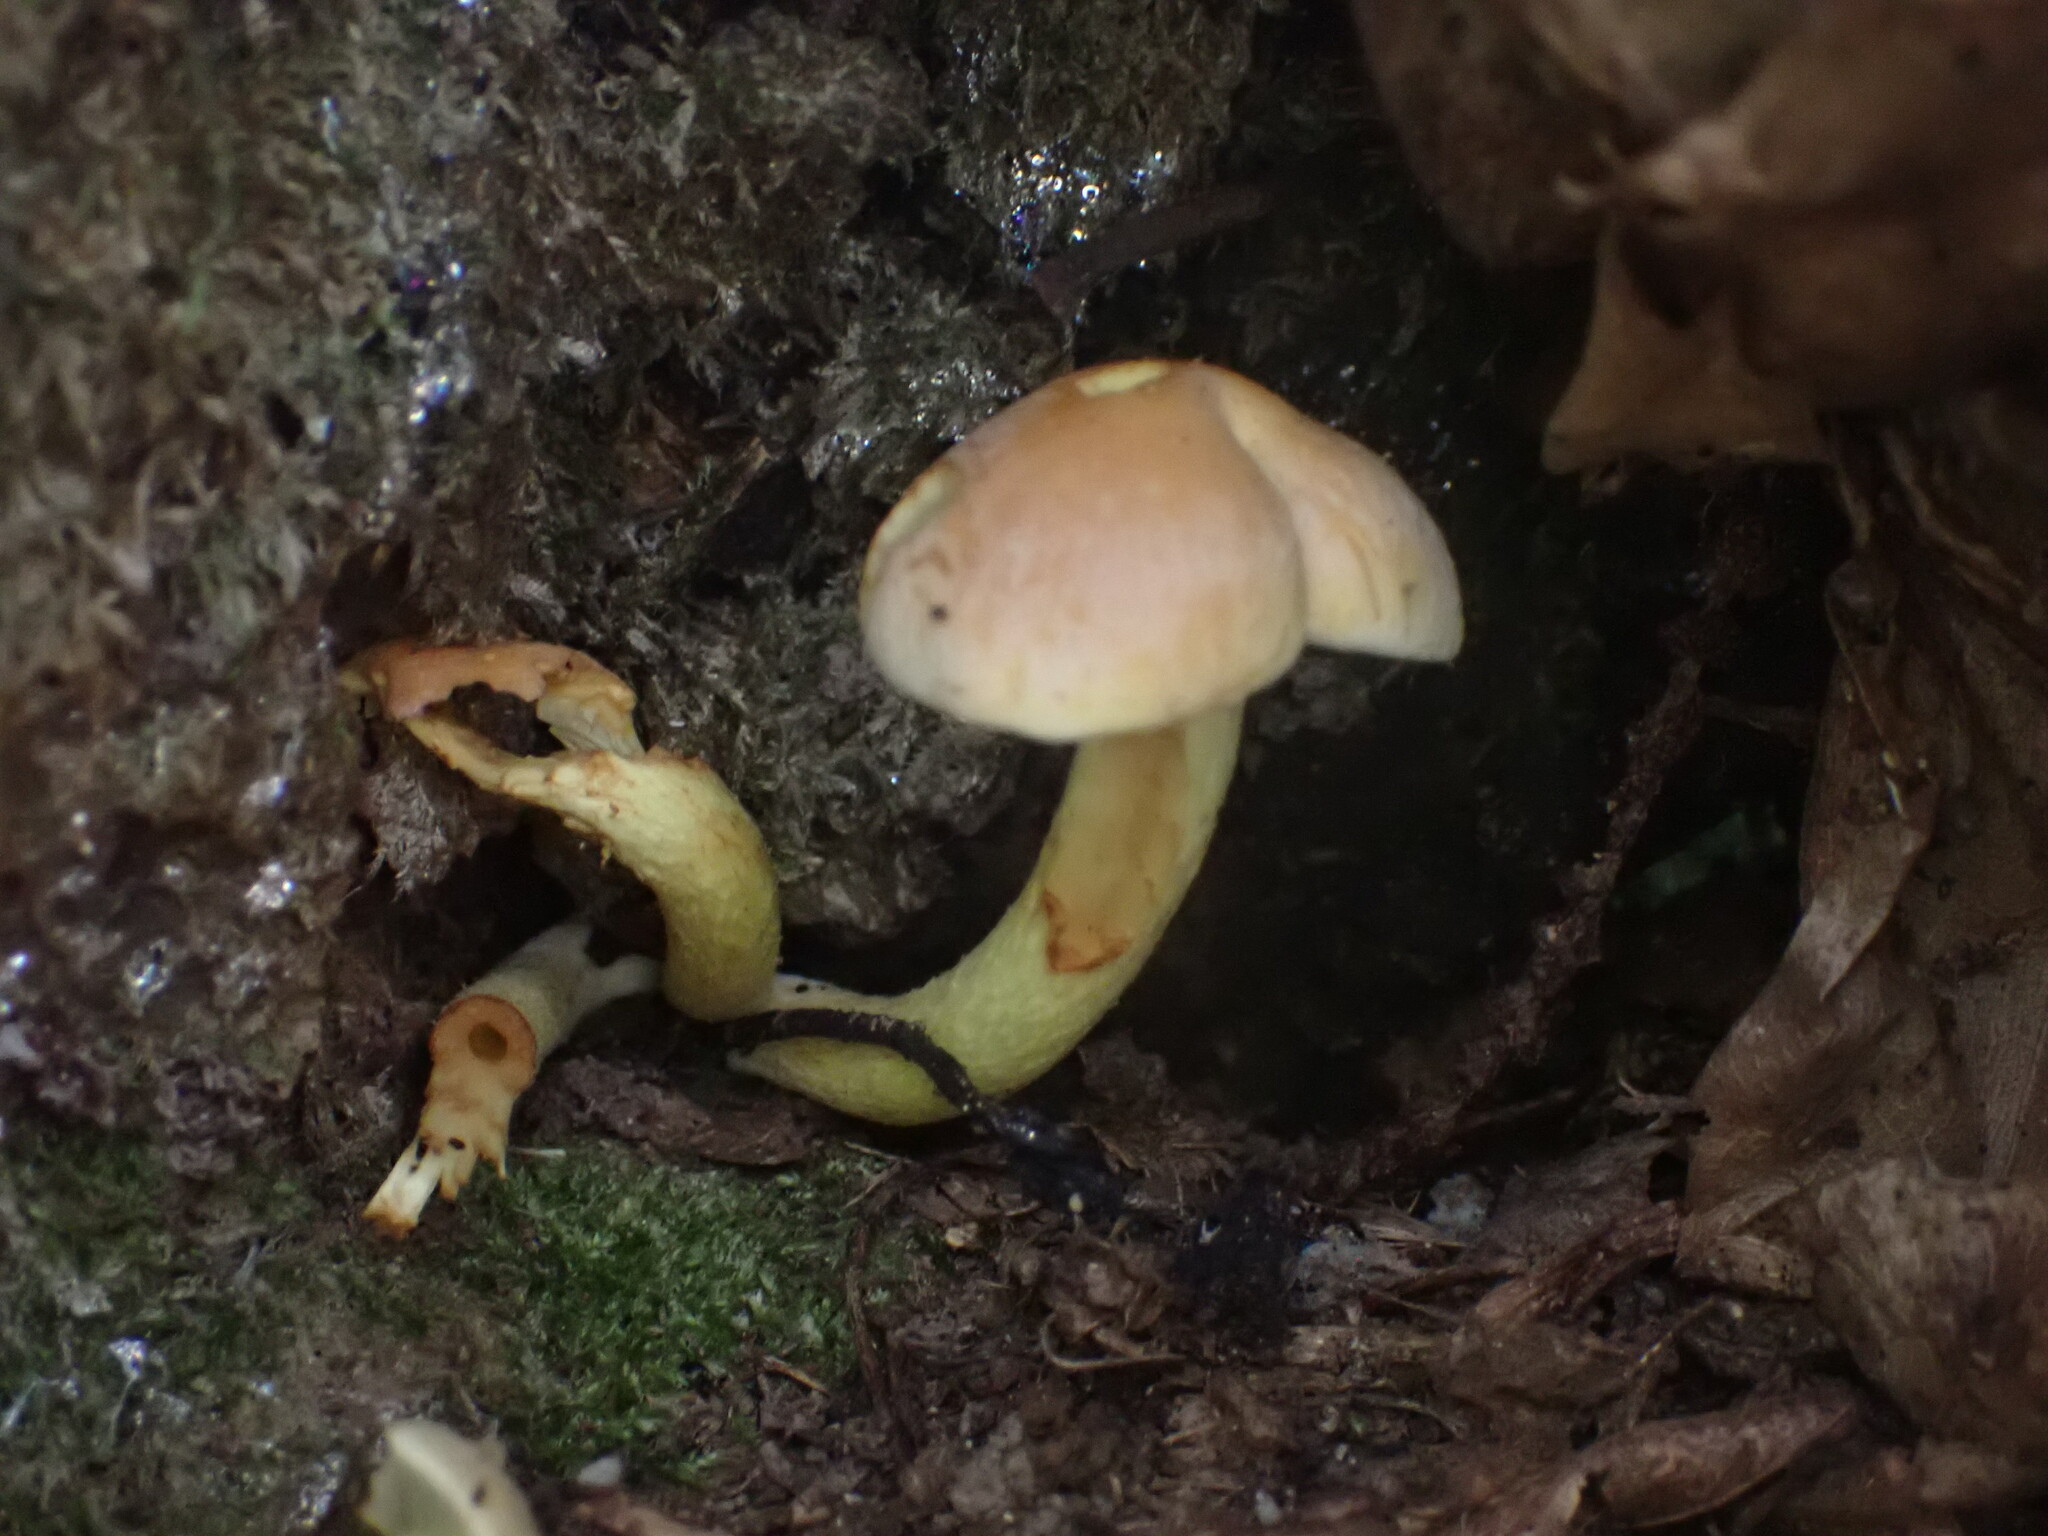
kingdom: Fungi
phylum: Basidiomycota
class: Agaricomycetes
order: Agaricales
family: Strophariaceae
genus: Hypholoma
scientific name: Hypholoma fasciculare
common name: Sulphur tuft
